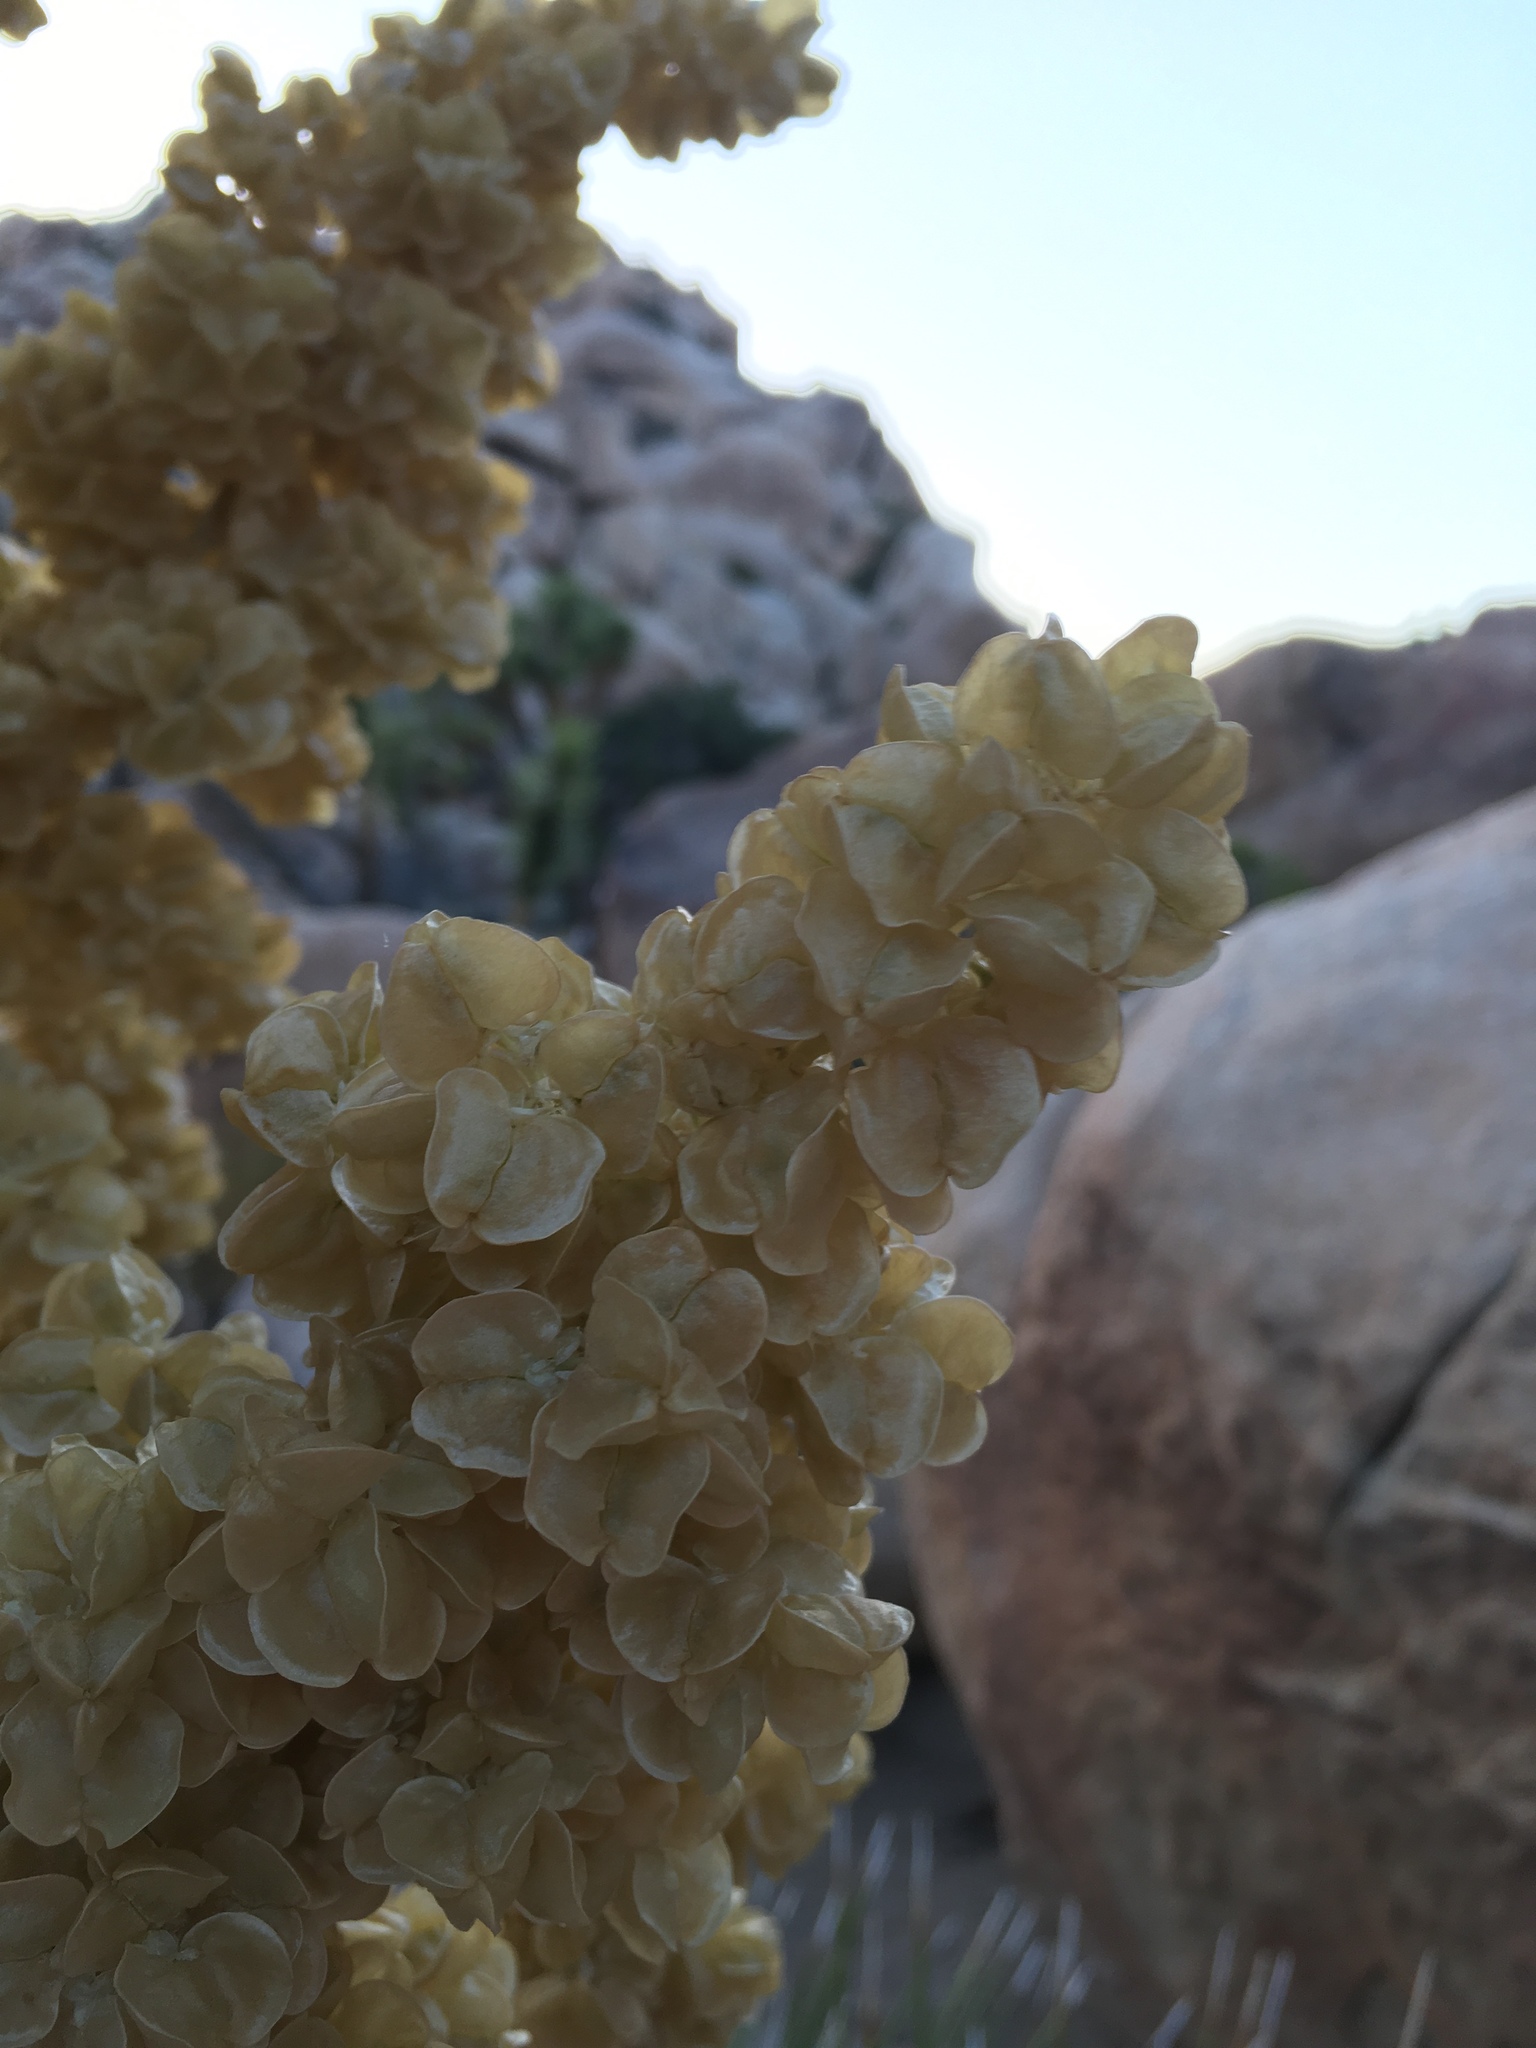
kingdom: Plantae
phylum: Tracheophyta
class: Liliopsida
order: Asparagales
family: Asparagaceae
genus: Nolina
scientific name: Nolina parryi
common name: Parry nolina
